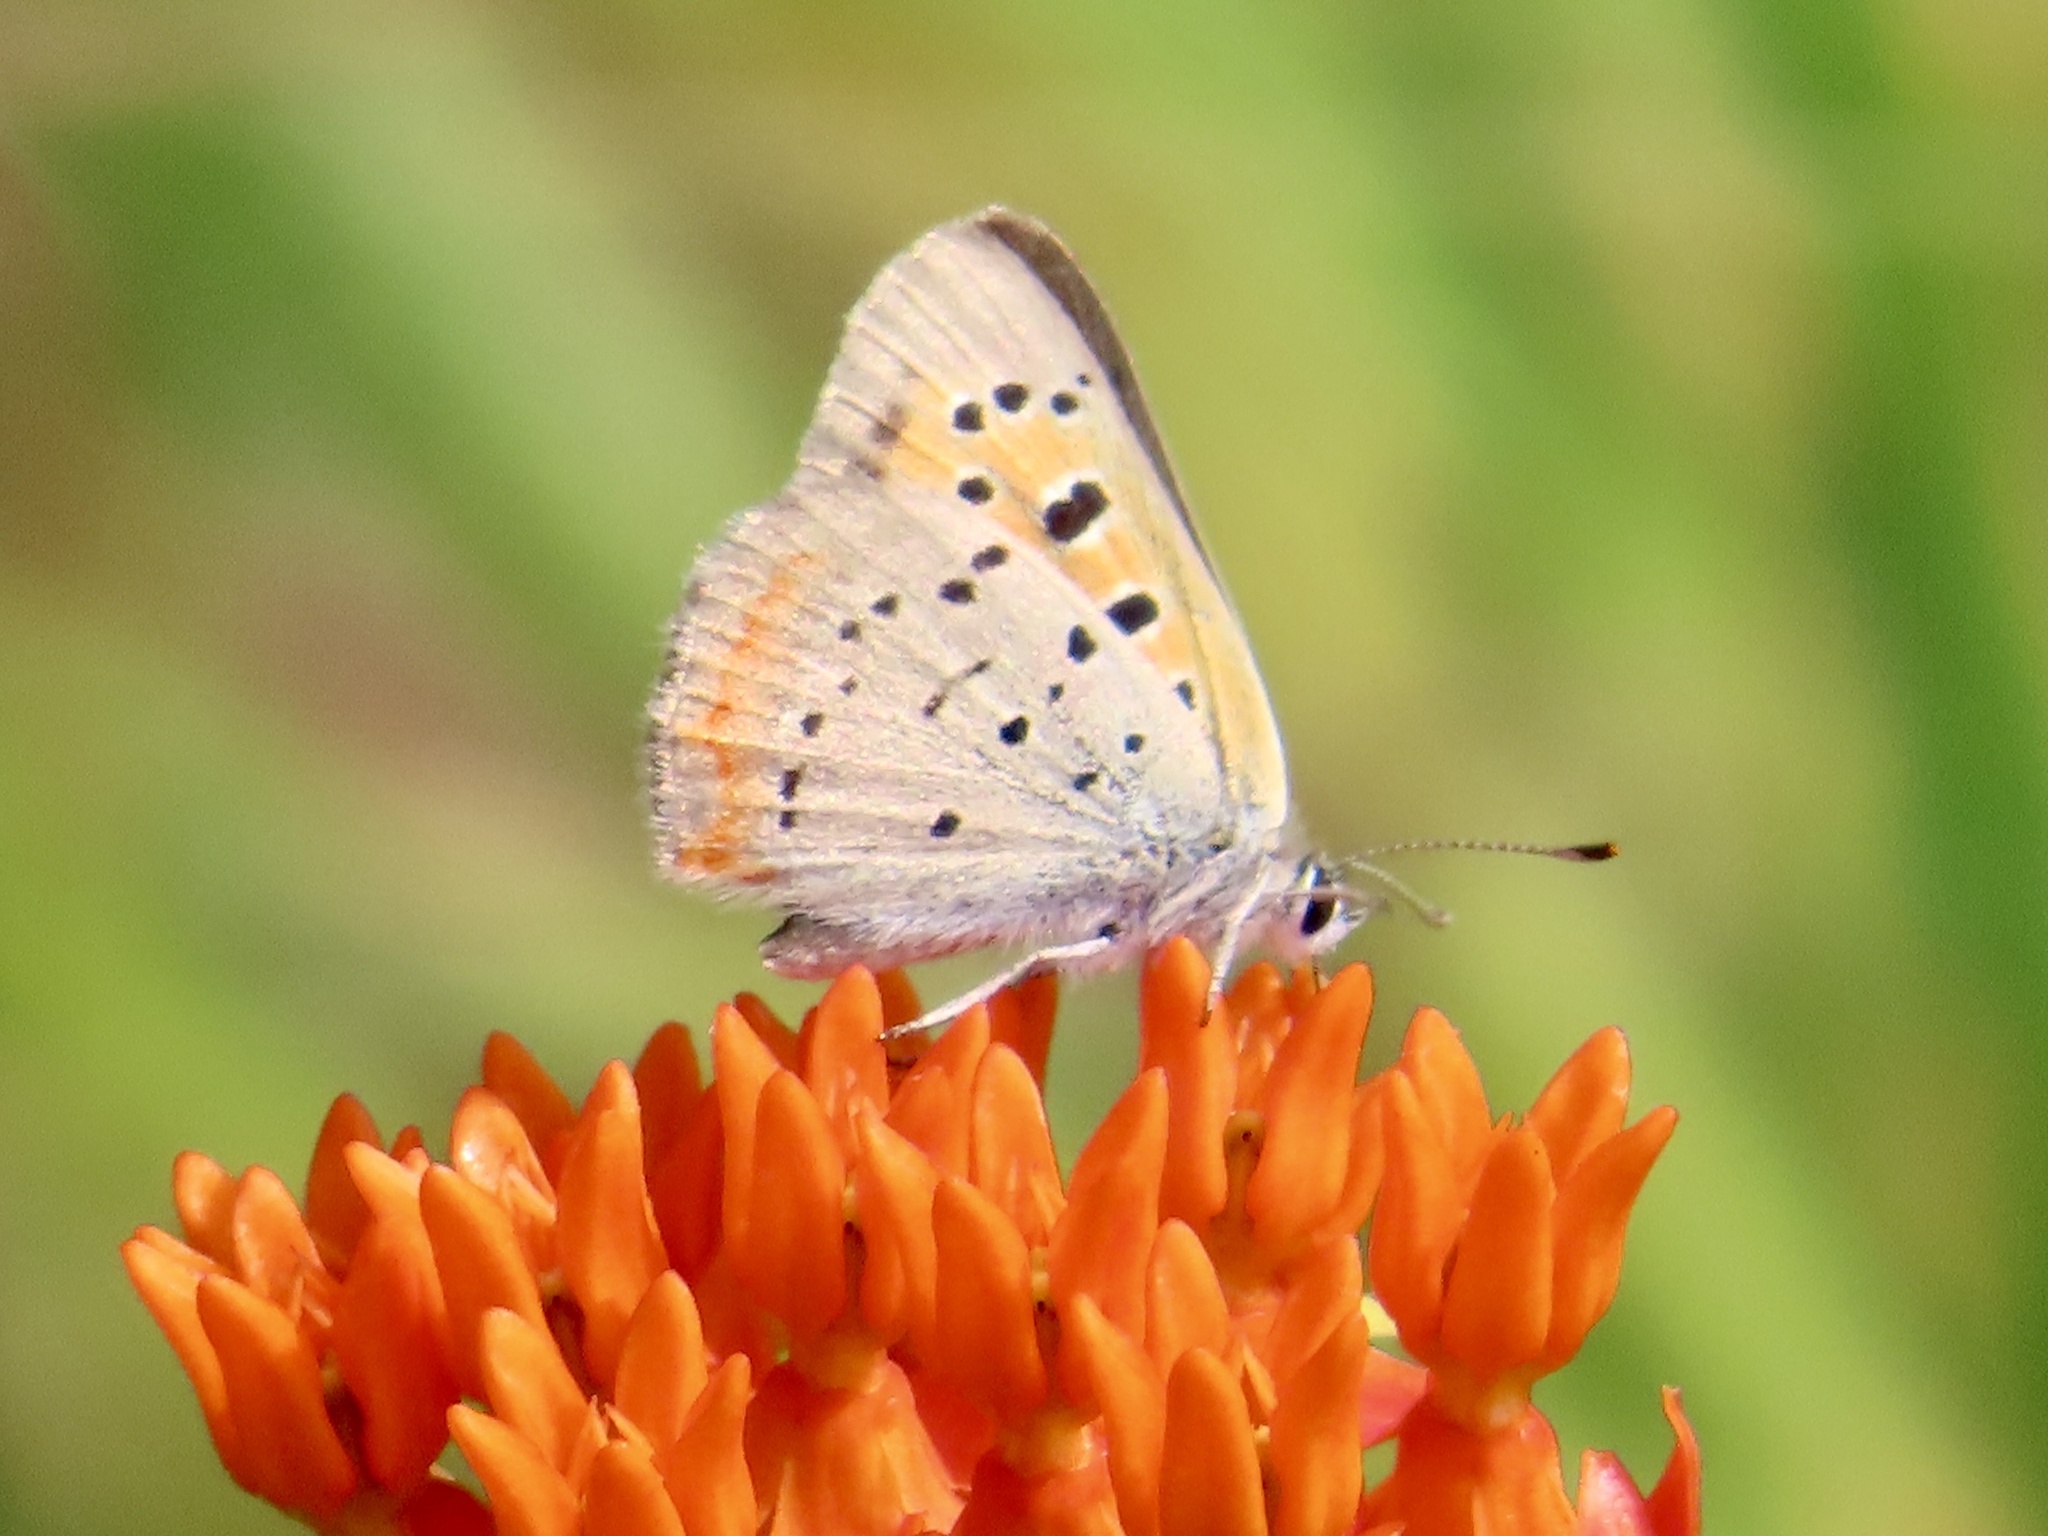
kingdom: Animalia
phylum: Arthropoda
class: Insecta
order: Lepidoptera
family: Lycaenidae
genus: Lycaena
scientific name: Lycaena hypophlaeas
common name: American copper
